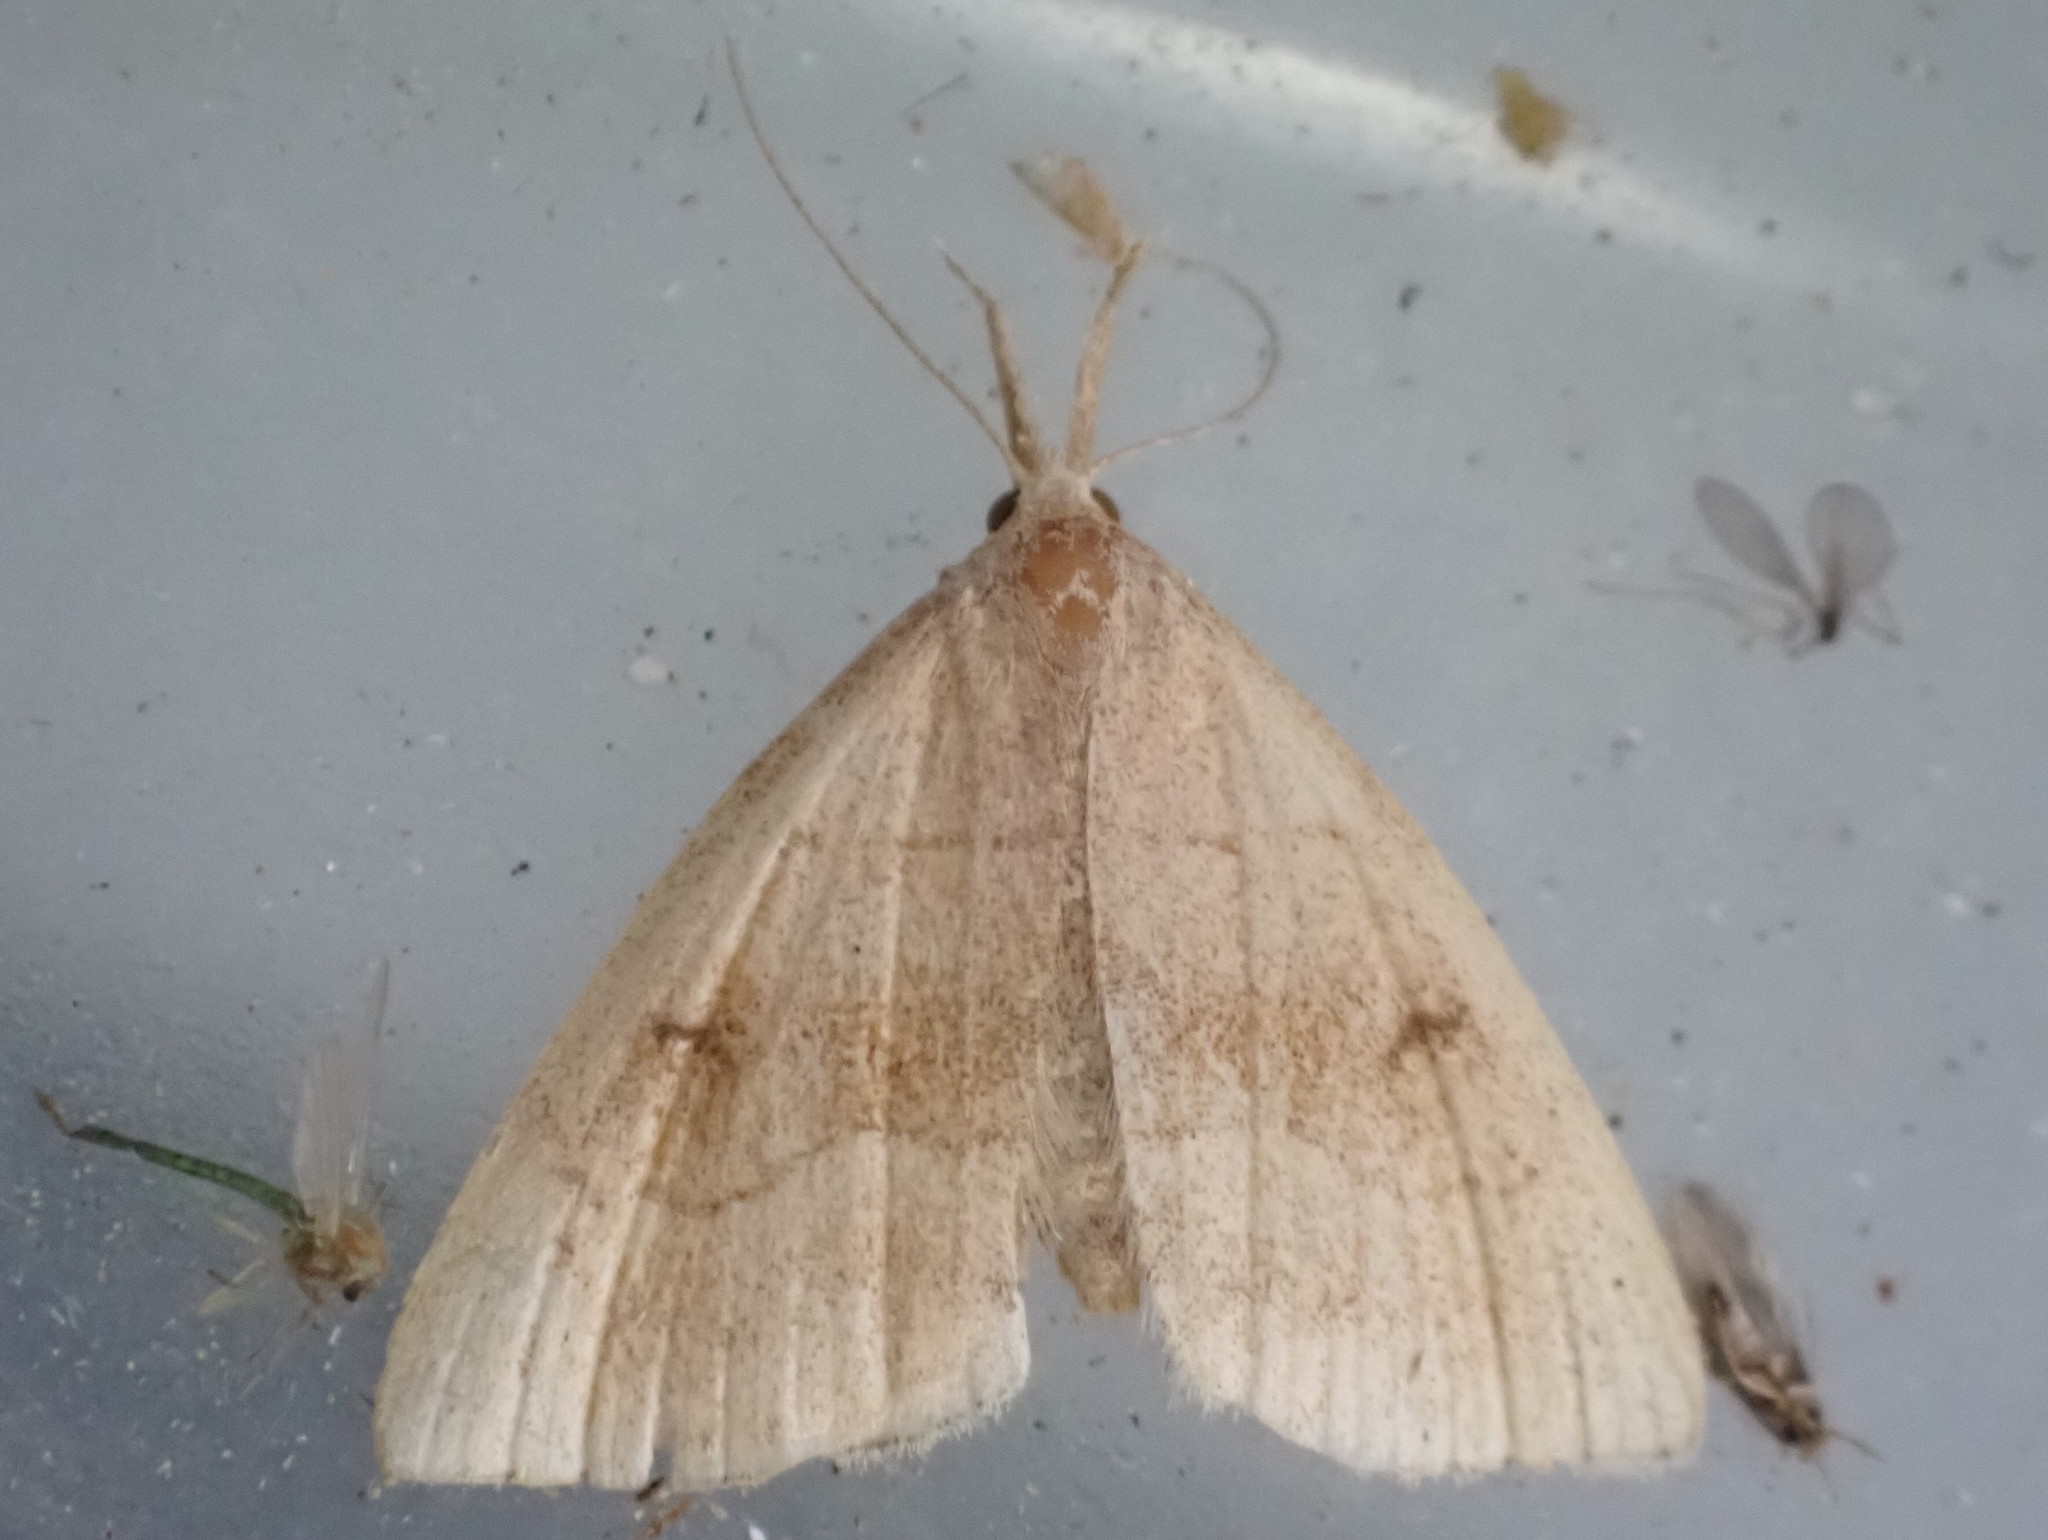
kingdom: Animalia
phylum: Arthropoda
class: Insecta
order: Lepidoptera
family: Erebidae
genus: Phalaenostola
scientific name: Phalaenostola metonalis
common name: Pale phalaenostola moth
